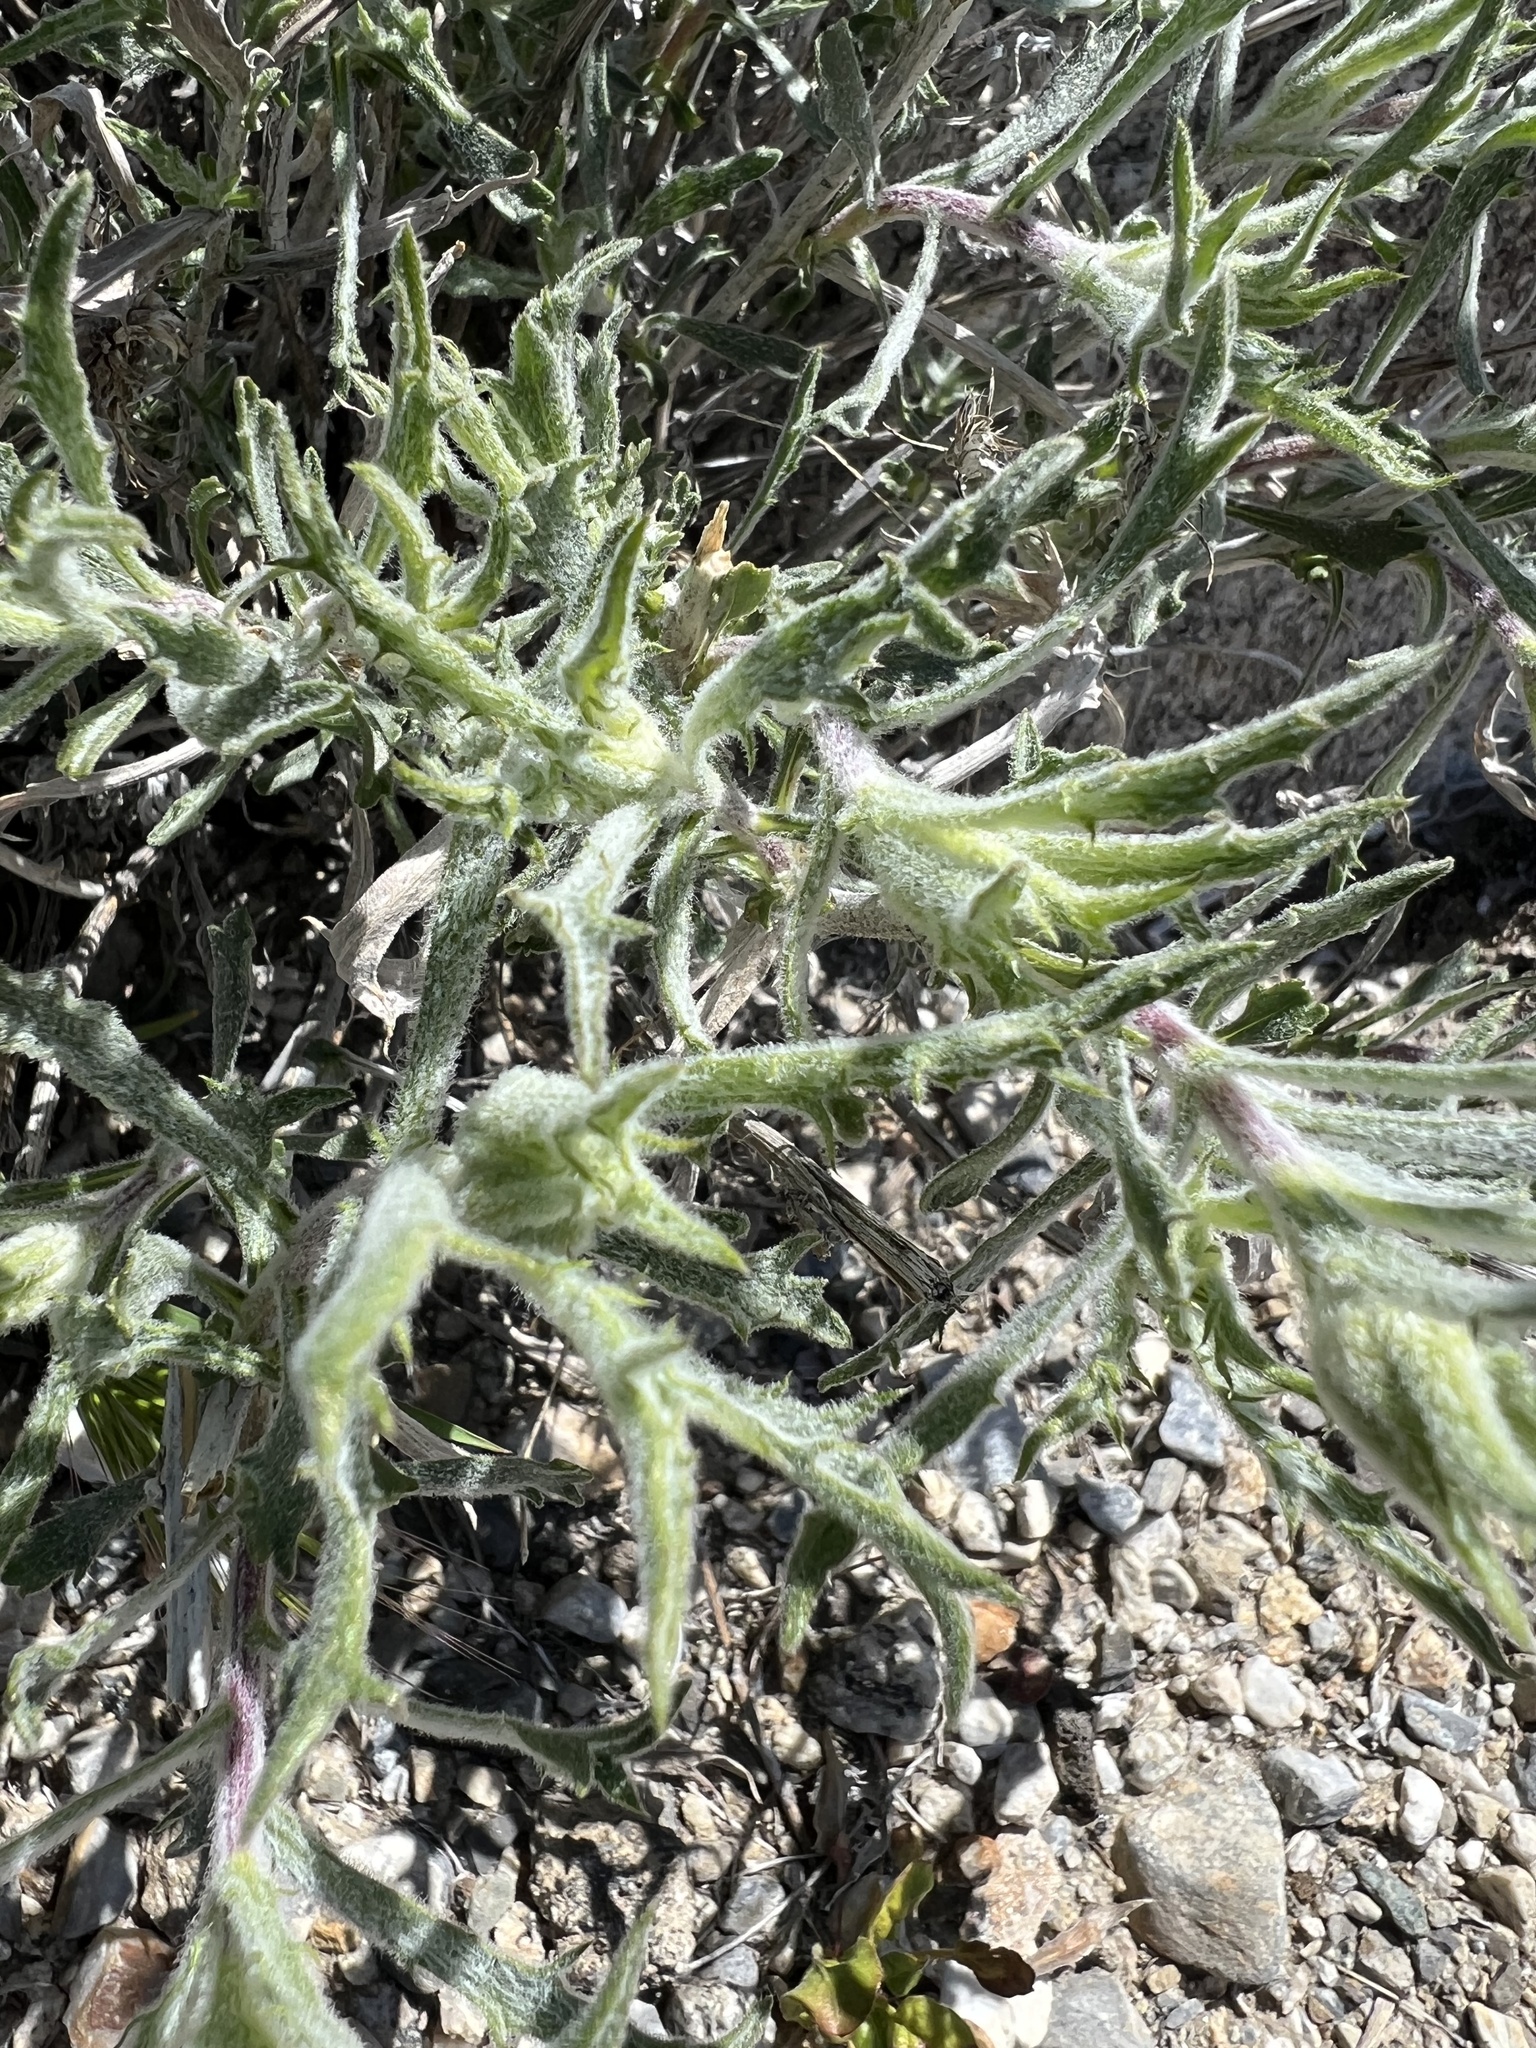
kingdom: Plantae
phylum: Tracheophyta
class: Magnoliopsida
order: Asterales
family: Asteraceae
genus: Xylorhiza
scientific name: Xylorhiza tortifolia
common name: Hurt-leaf woody-aster
